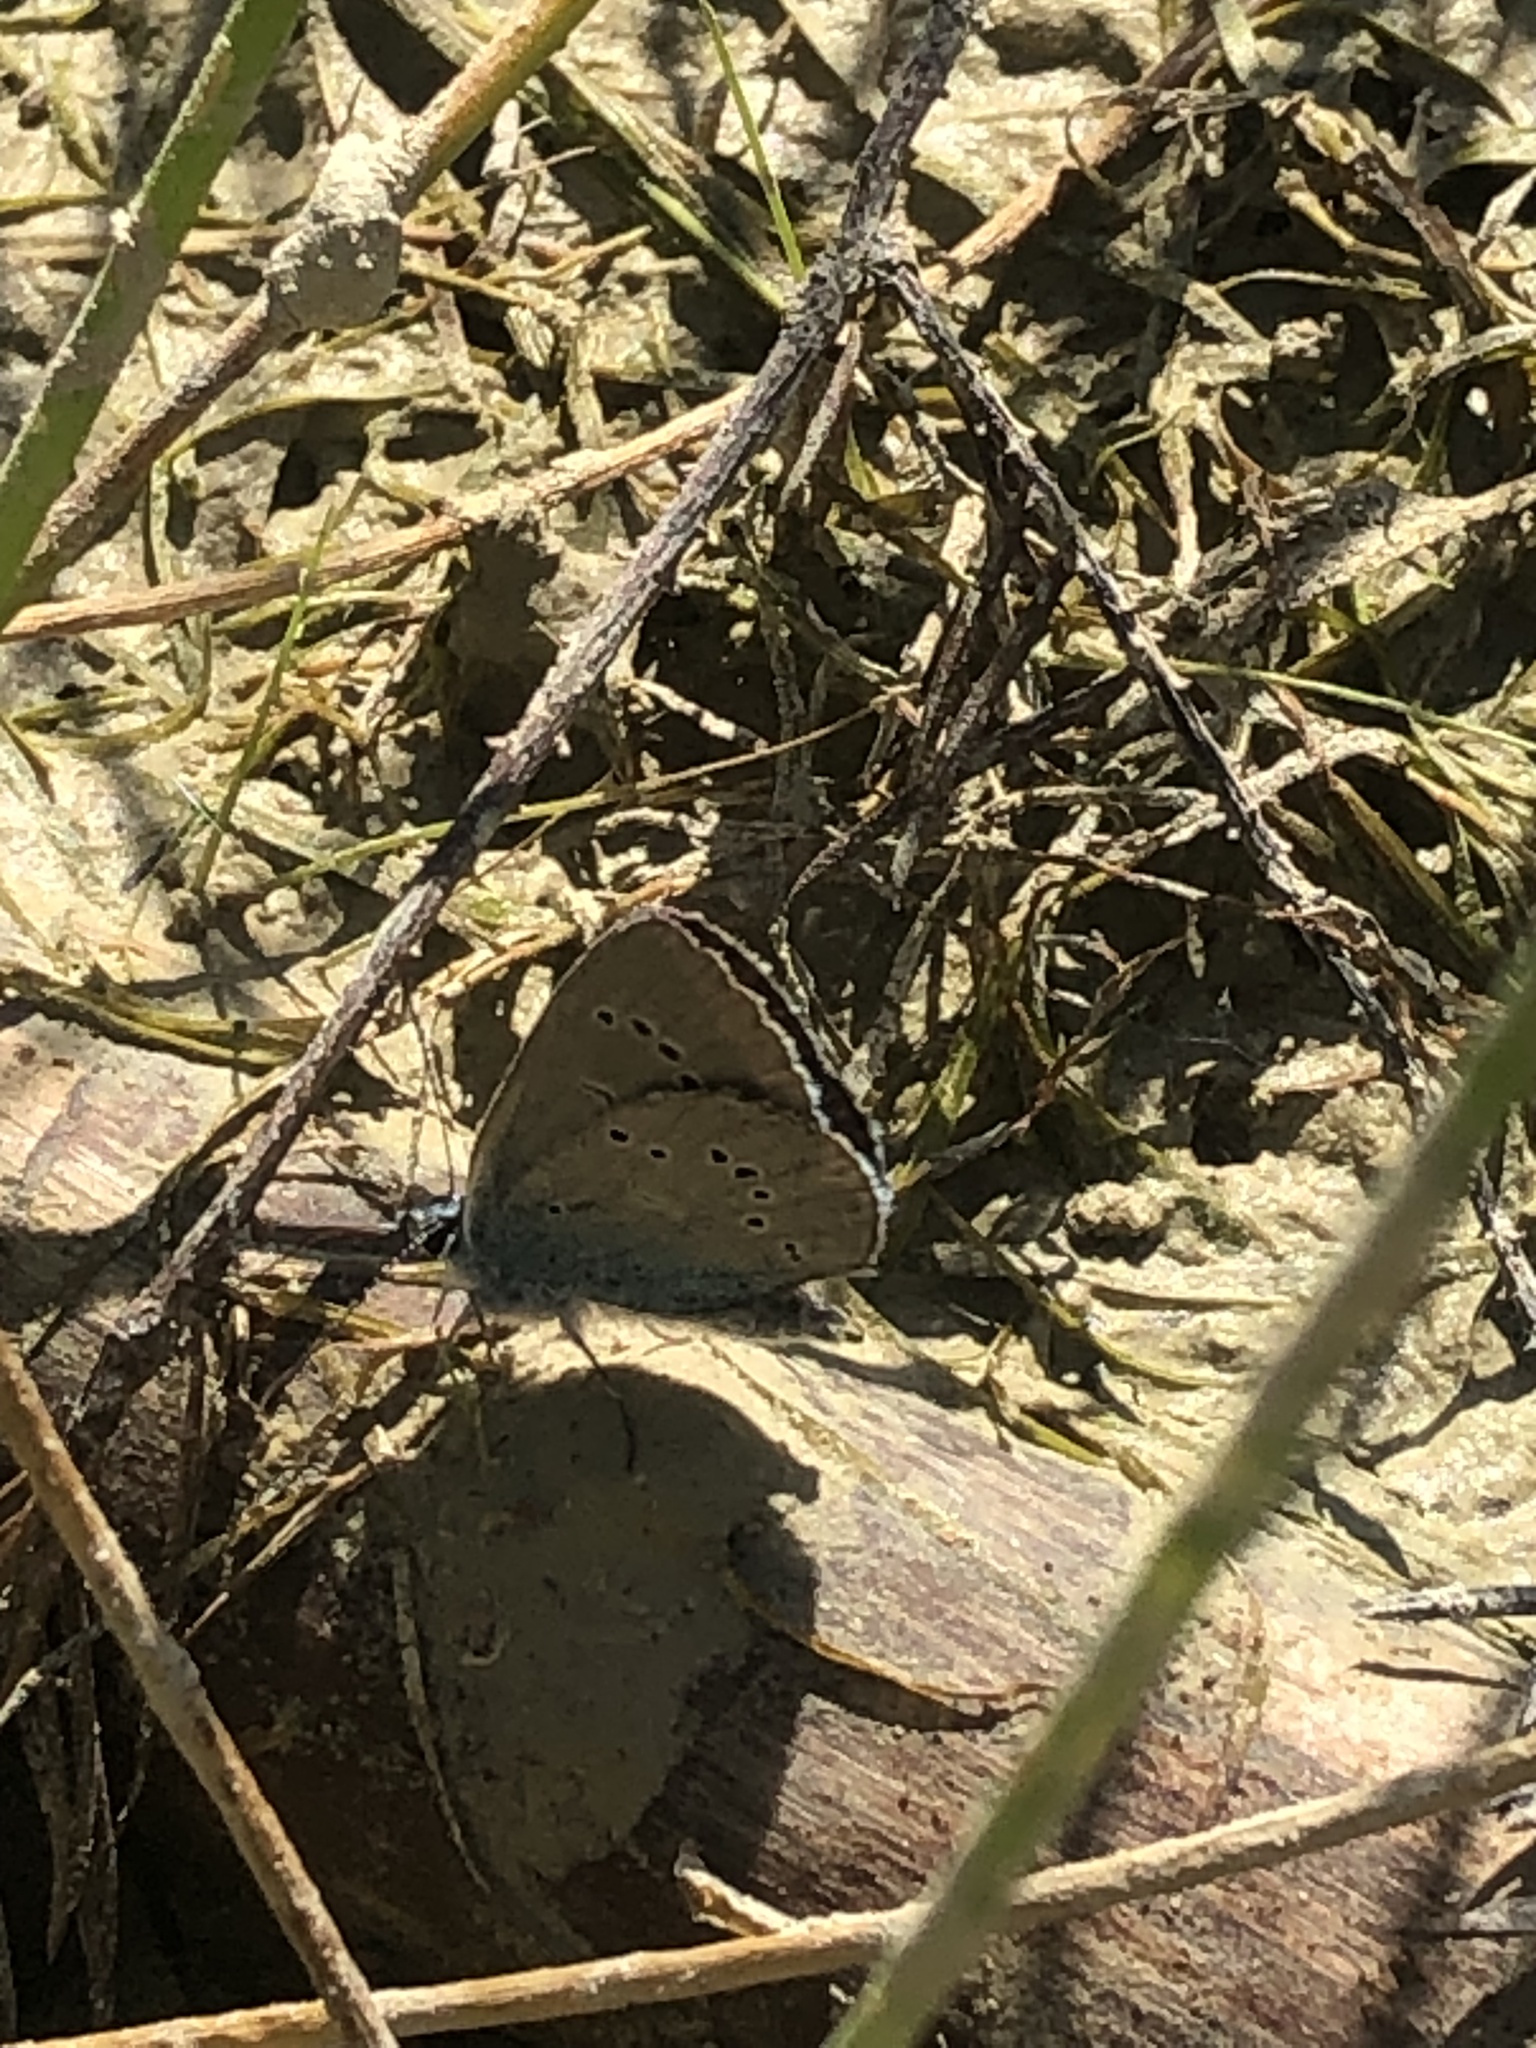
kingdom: Animalia
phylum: Arthropoda
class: Insecta
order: Lepidoptera
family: Lycaenidae
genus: Cyaniris
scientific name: Cyaniris semiargus
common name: Mazarine blue
